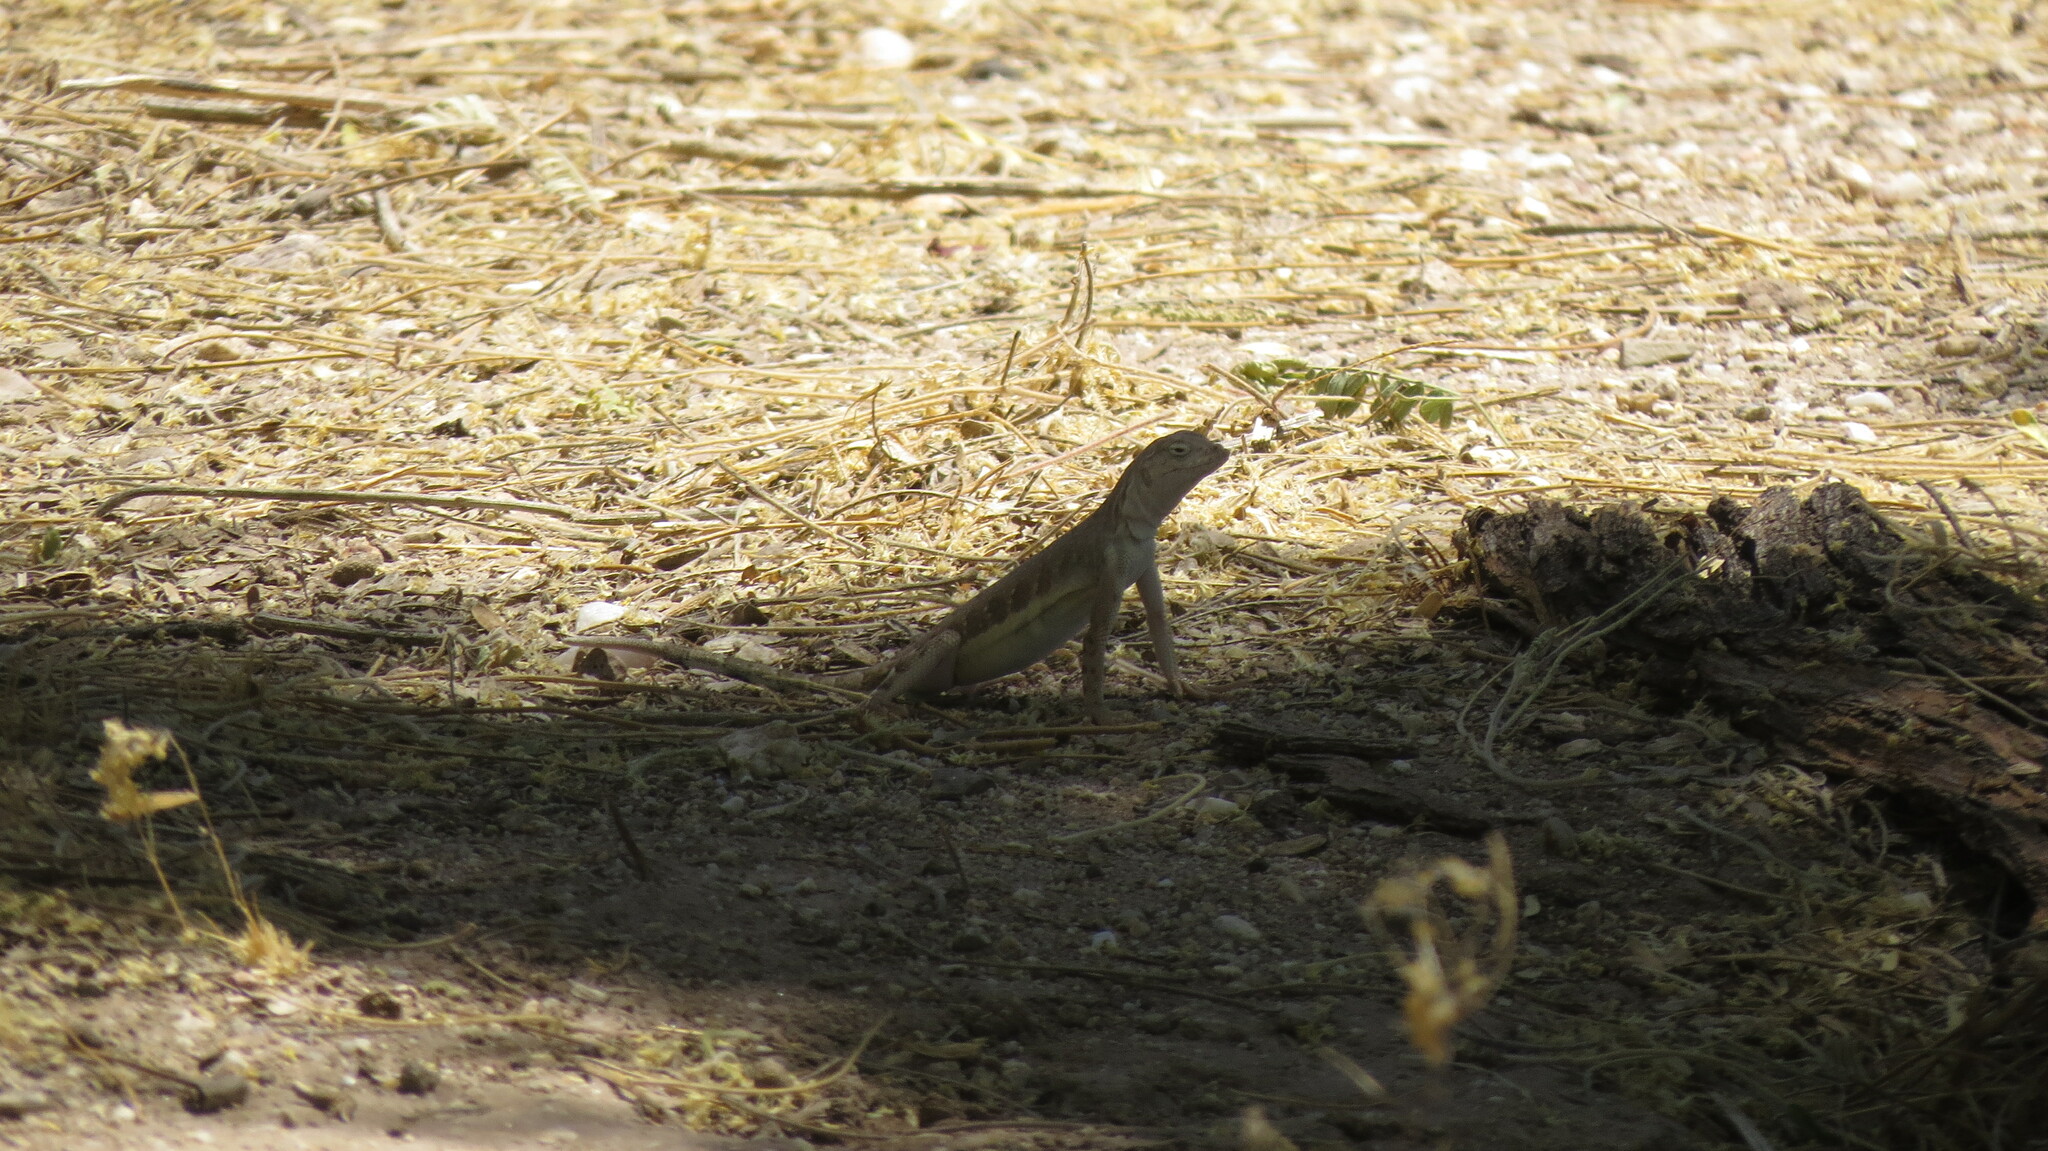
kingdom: Animalia
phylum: Chordata
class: Squamata
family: Phrynosomatidae
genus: Callisaurus
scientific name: Callisaurus draconoides
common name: Zebra-tailed lizard
